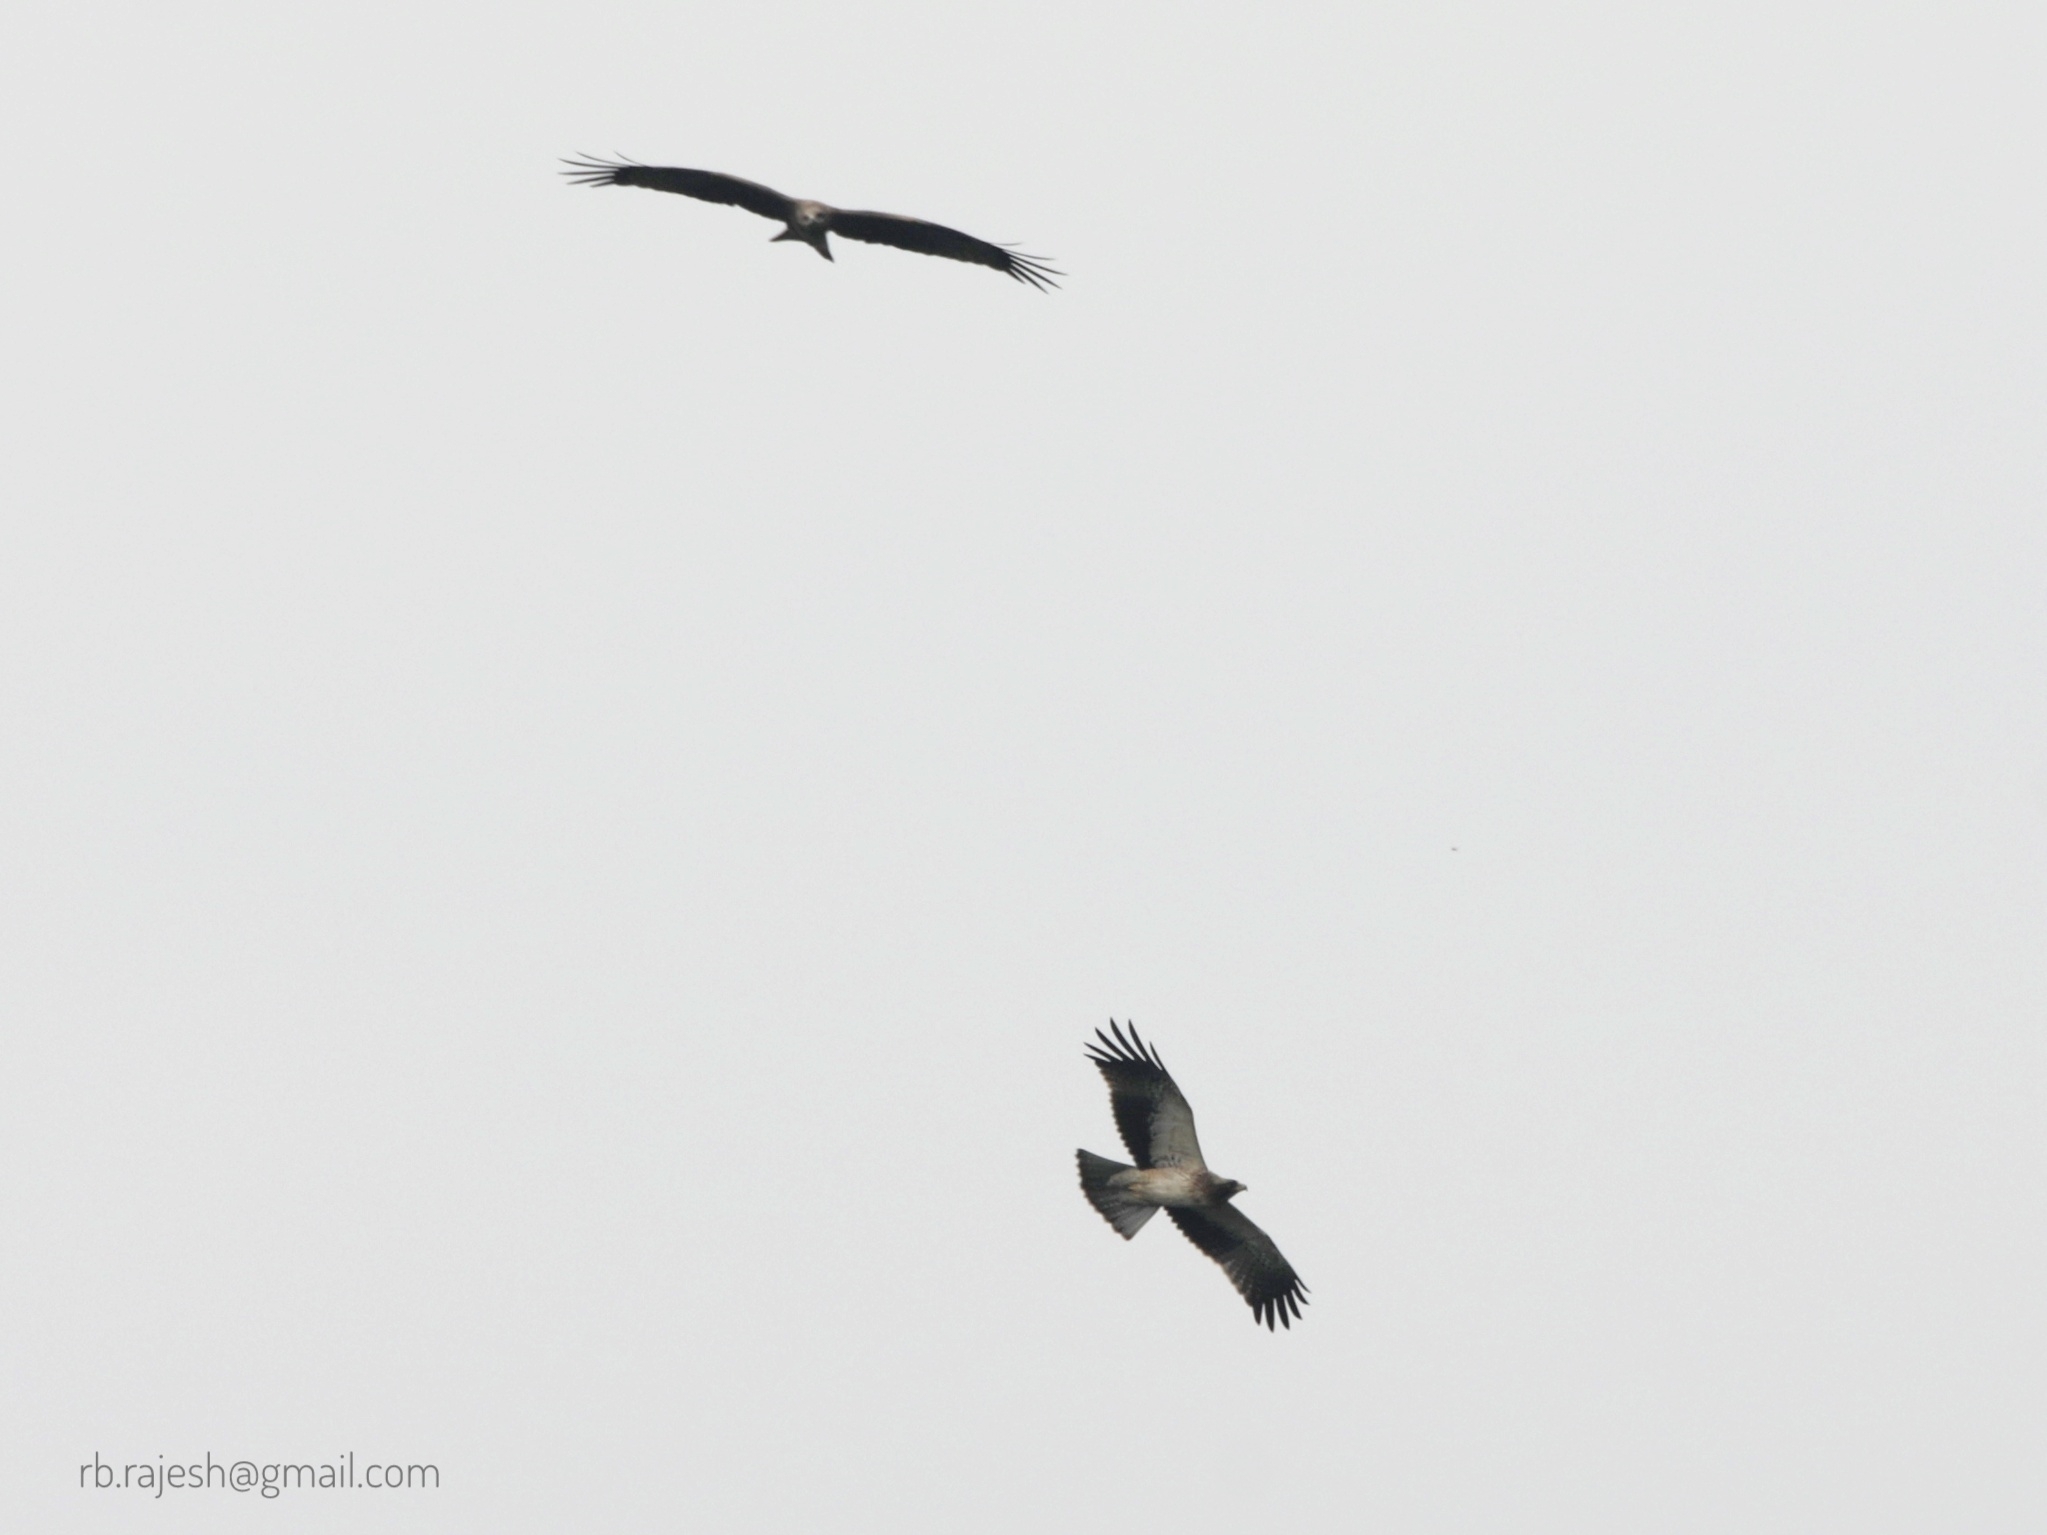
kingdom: Animalia
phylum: Chordata
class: Aves
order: Accipitriformes
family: Accipitridae
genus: Hieraaetus
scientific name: Hieraaetus pennatus
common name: Booted eagle
